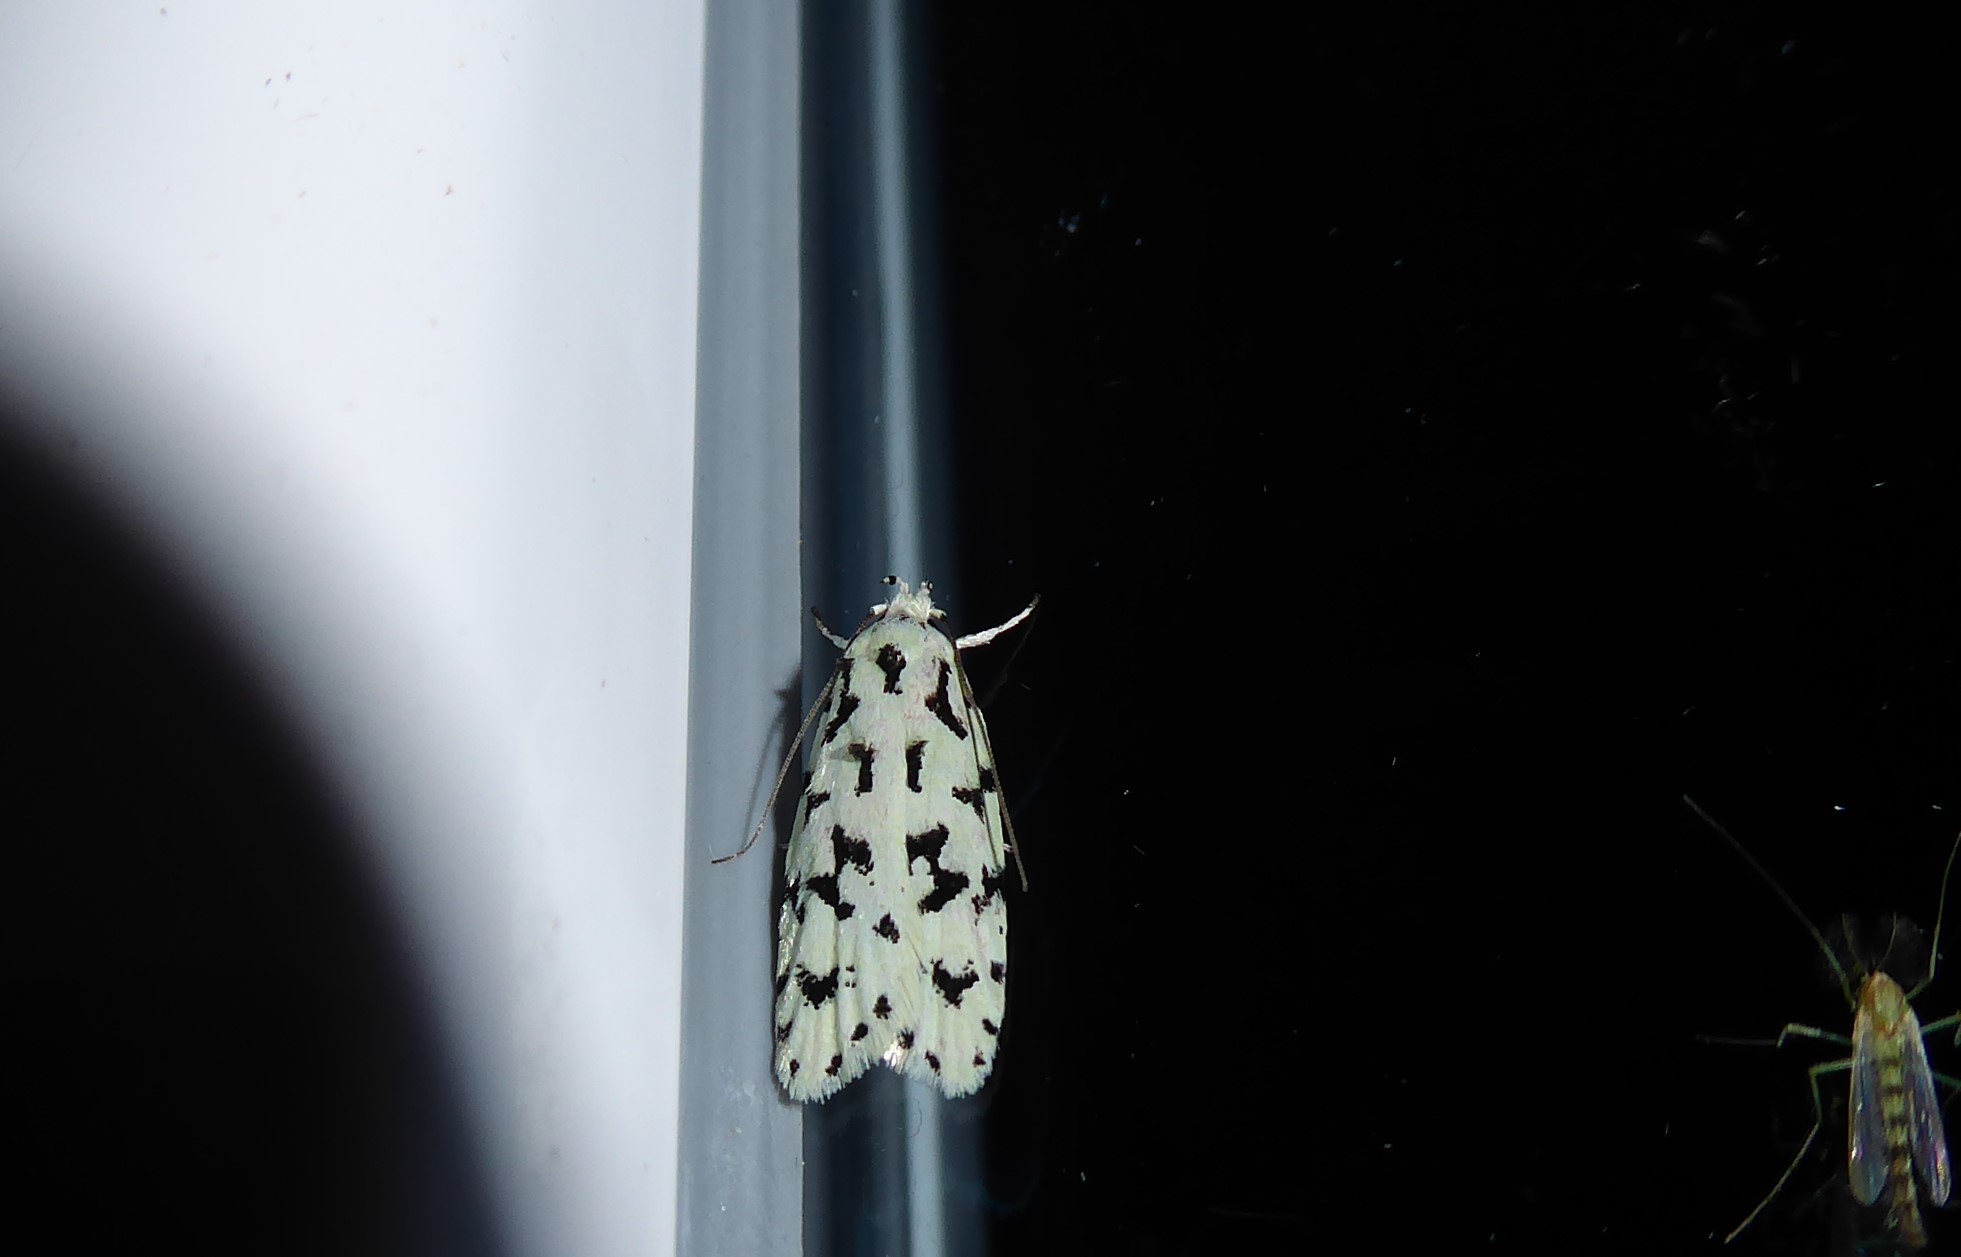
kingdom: Animalia
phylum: Arthropoda
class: Insecta
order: Lepidoptera
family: Oecophoridae
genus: Izatha
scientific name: Izatha huttoni
